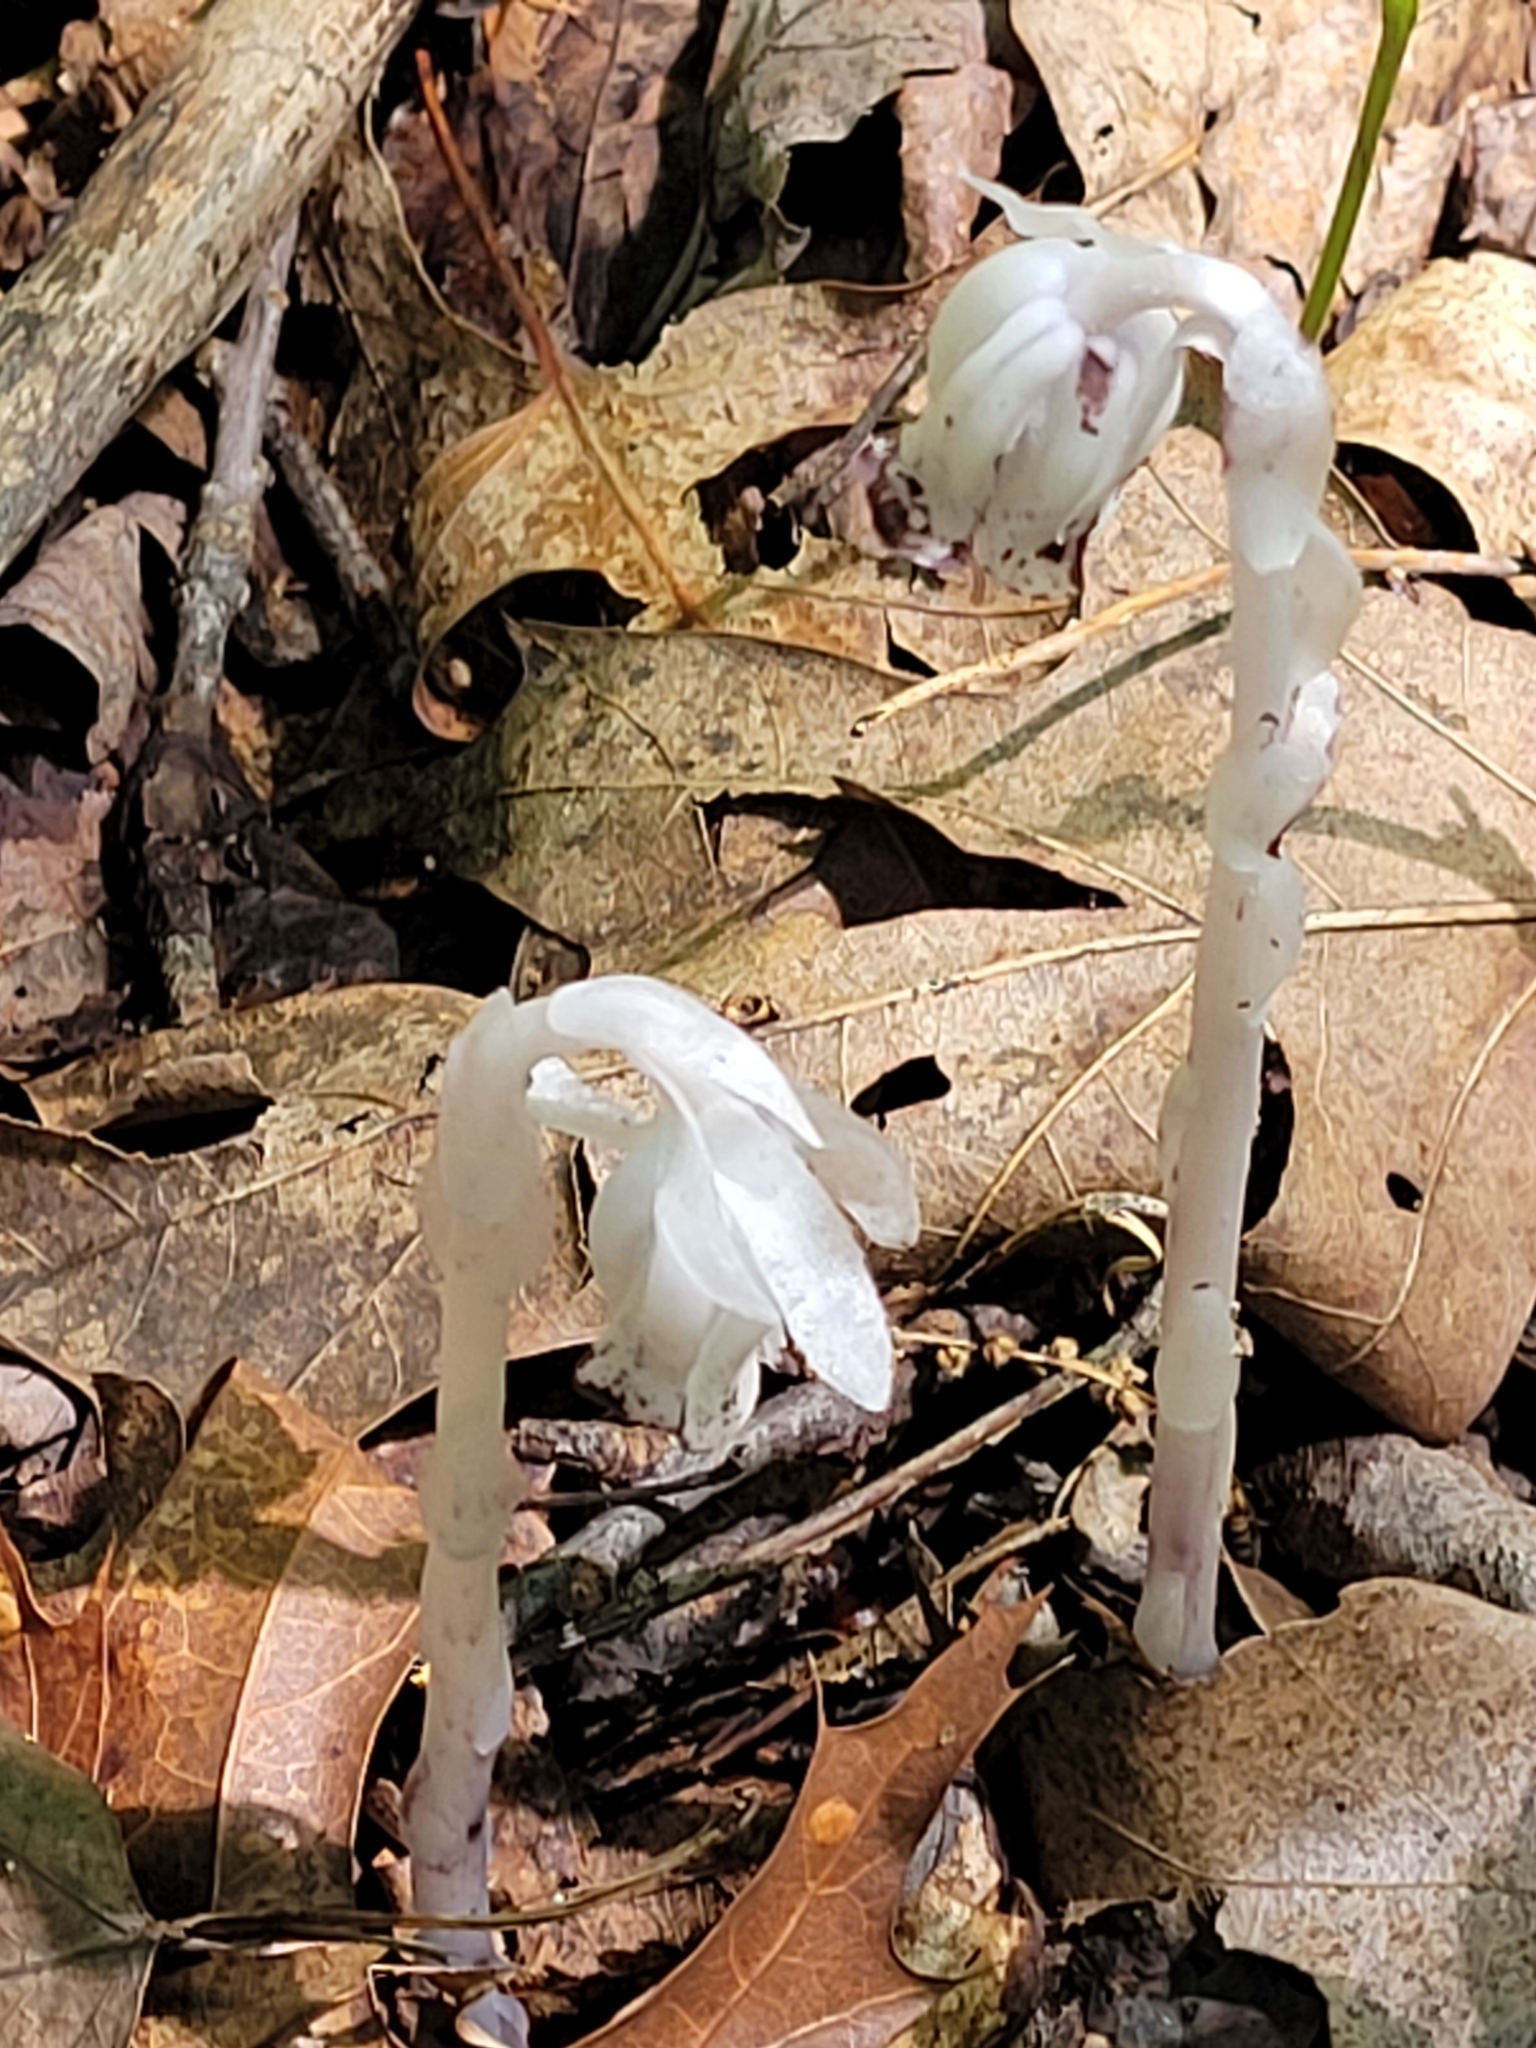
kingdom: Plantae
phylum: Tracheophyta
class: Magnoliopsida
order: Ericales
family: Ericaceae
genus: Monotropa
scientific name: Monotropa uniflora
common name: Convulsion root
